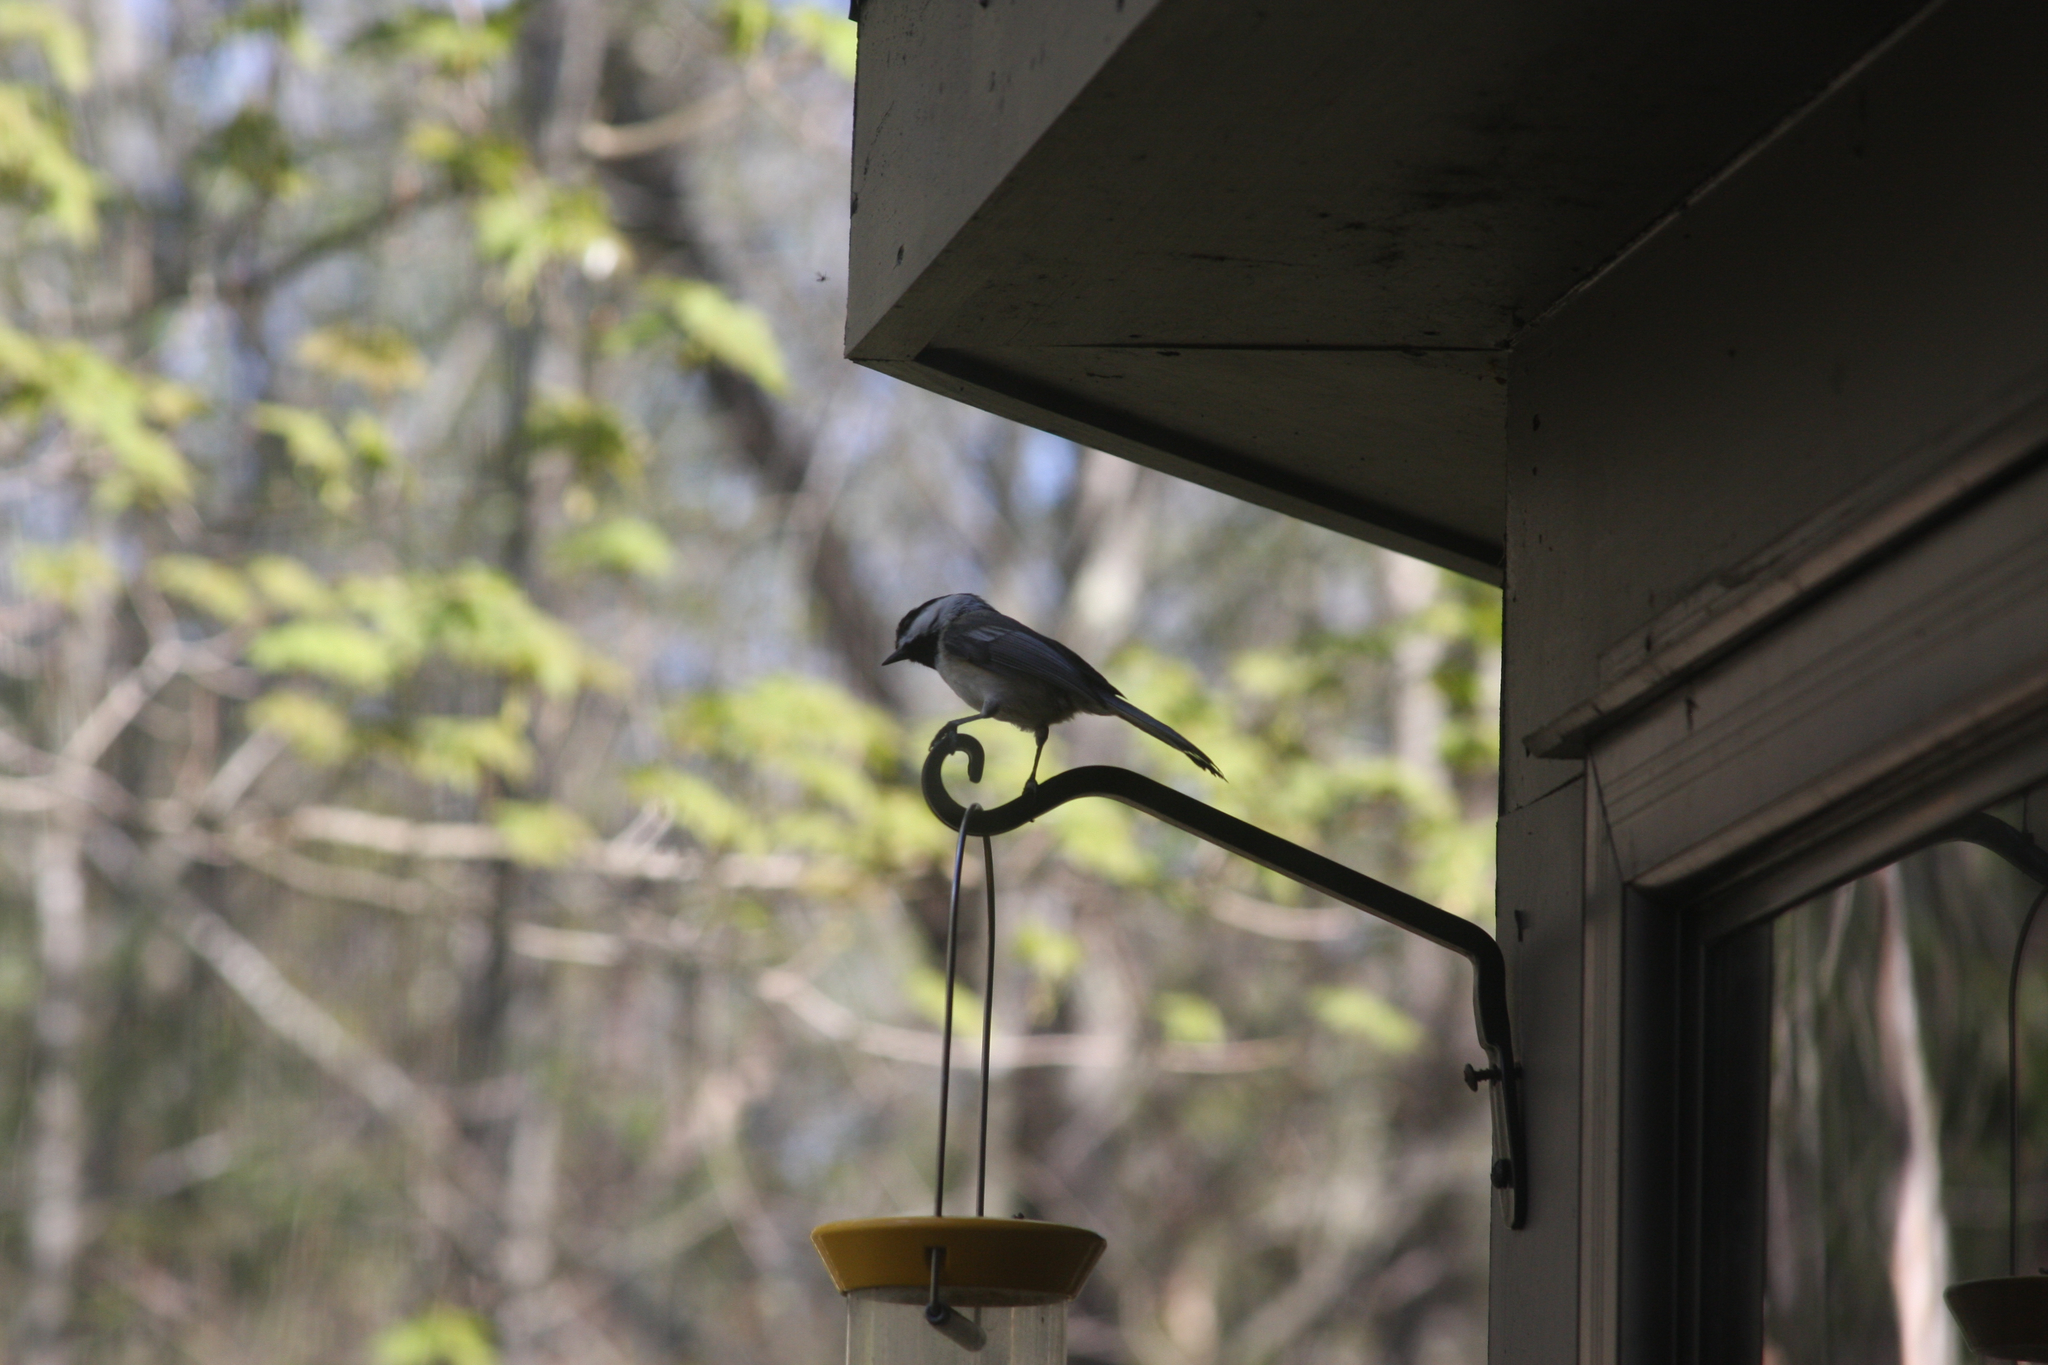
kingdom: Animalia
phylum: Chordata
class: Aves
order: Passeriformes
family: Paridae
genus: Poecile
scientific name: Poecile atricapillus
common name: Black-capped chickadee
